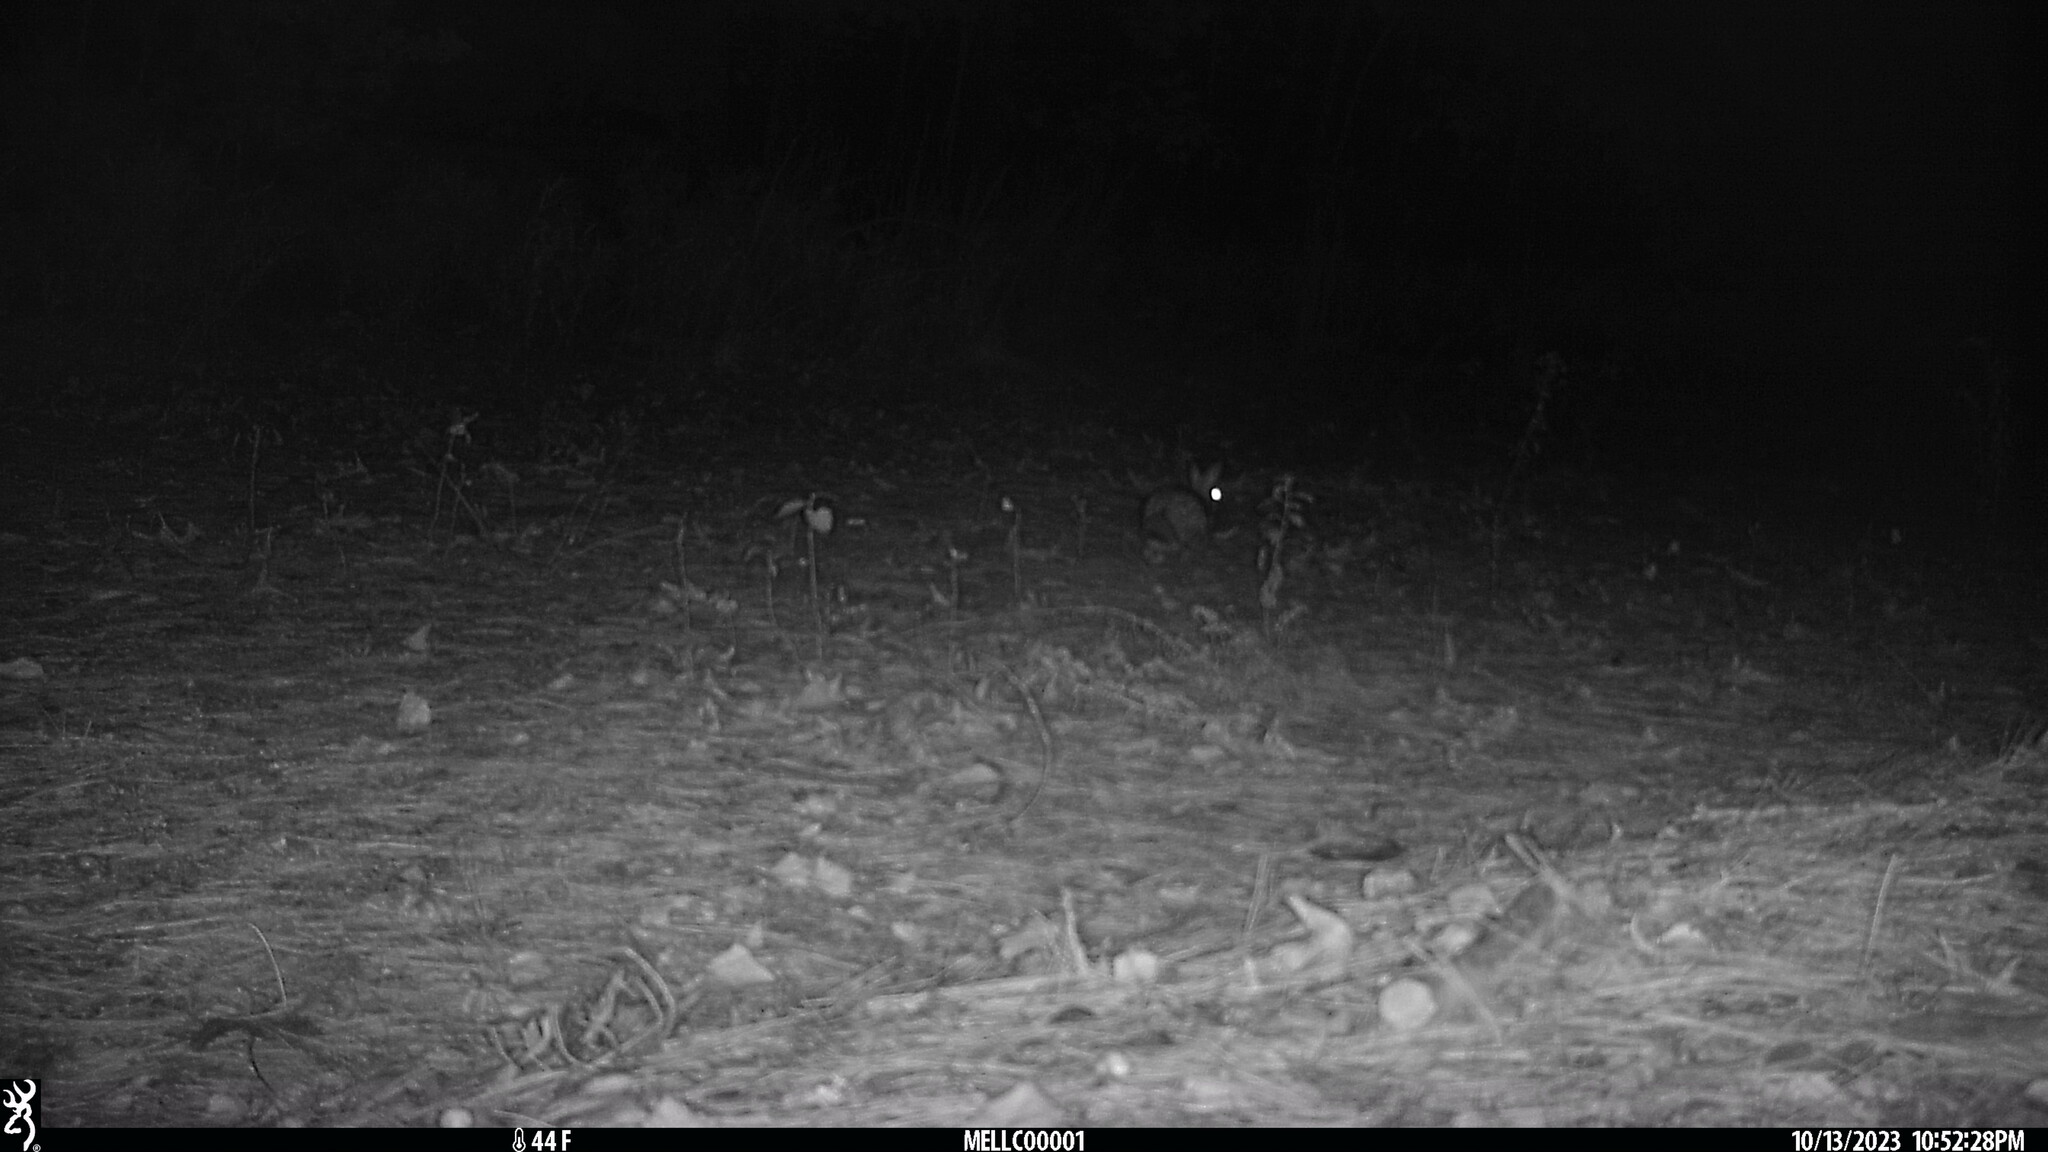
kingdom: Animalia
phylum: Chordata
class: Mammalia
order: Lagomorpha
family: Leporidae
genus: Sylvilagus
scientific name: Sylvilagus floridanus
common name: Eastern cottontail
